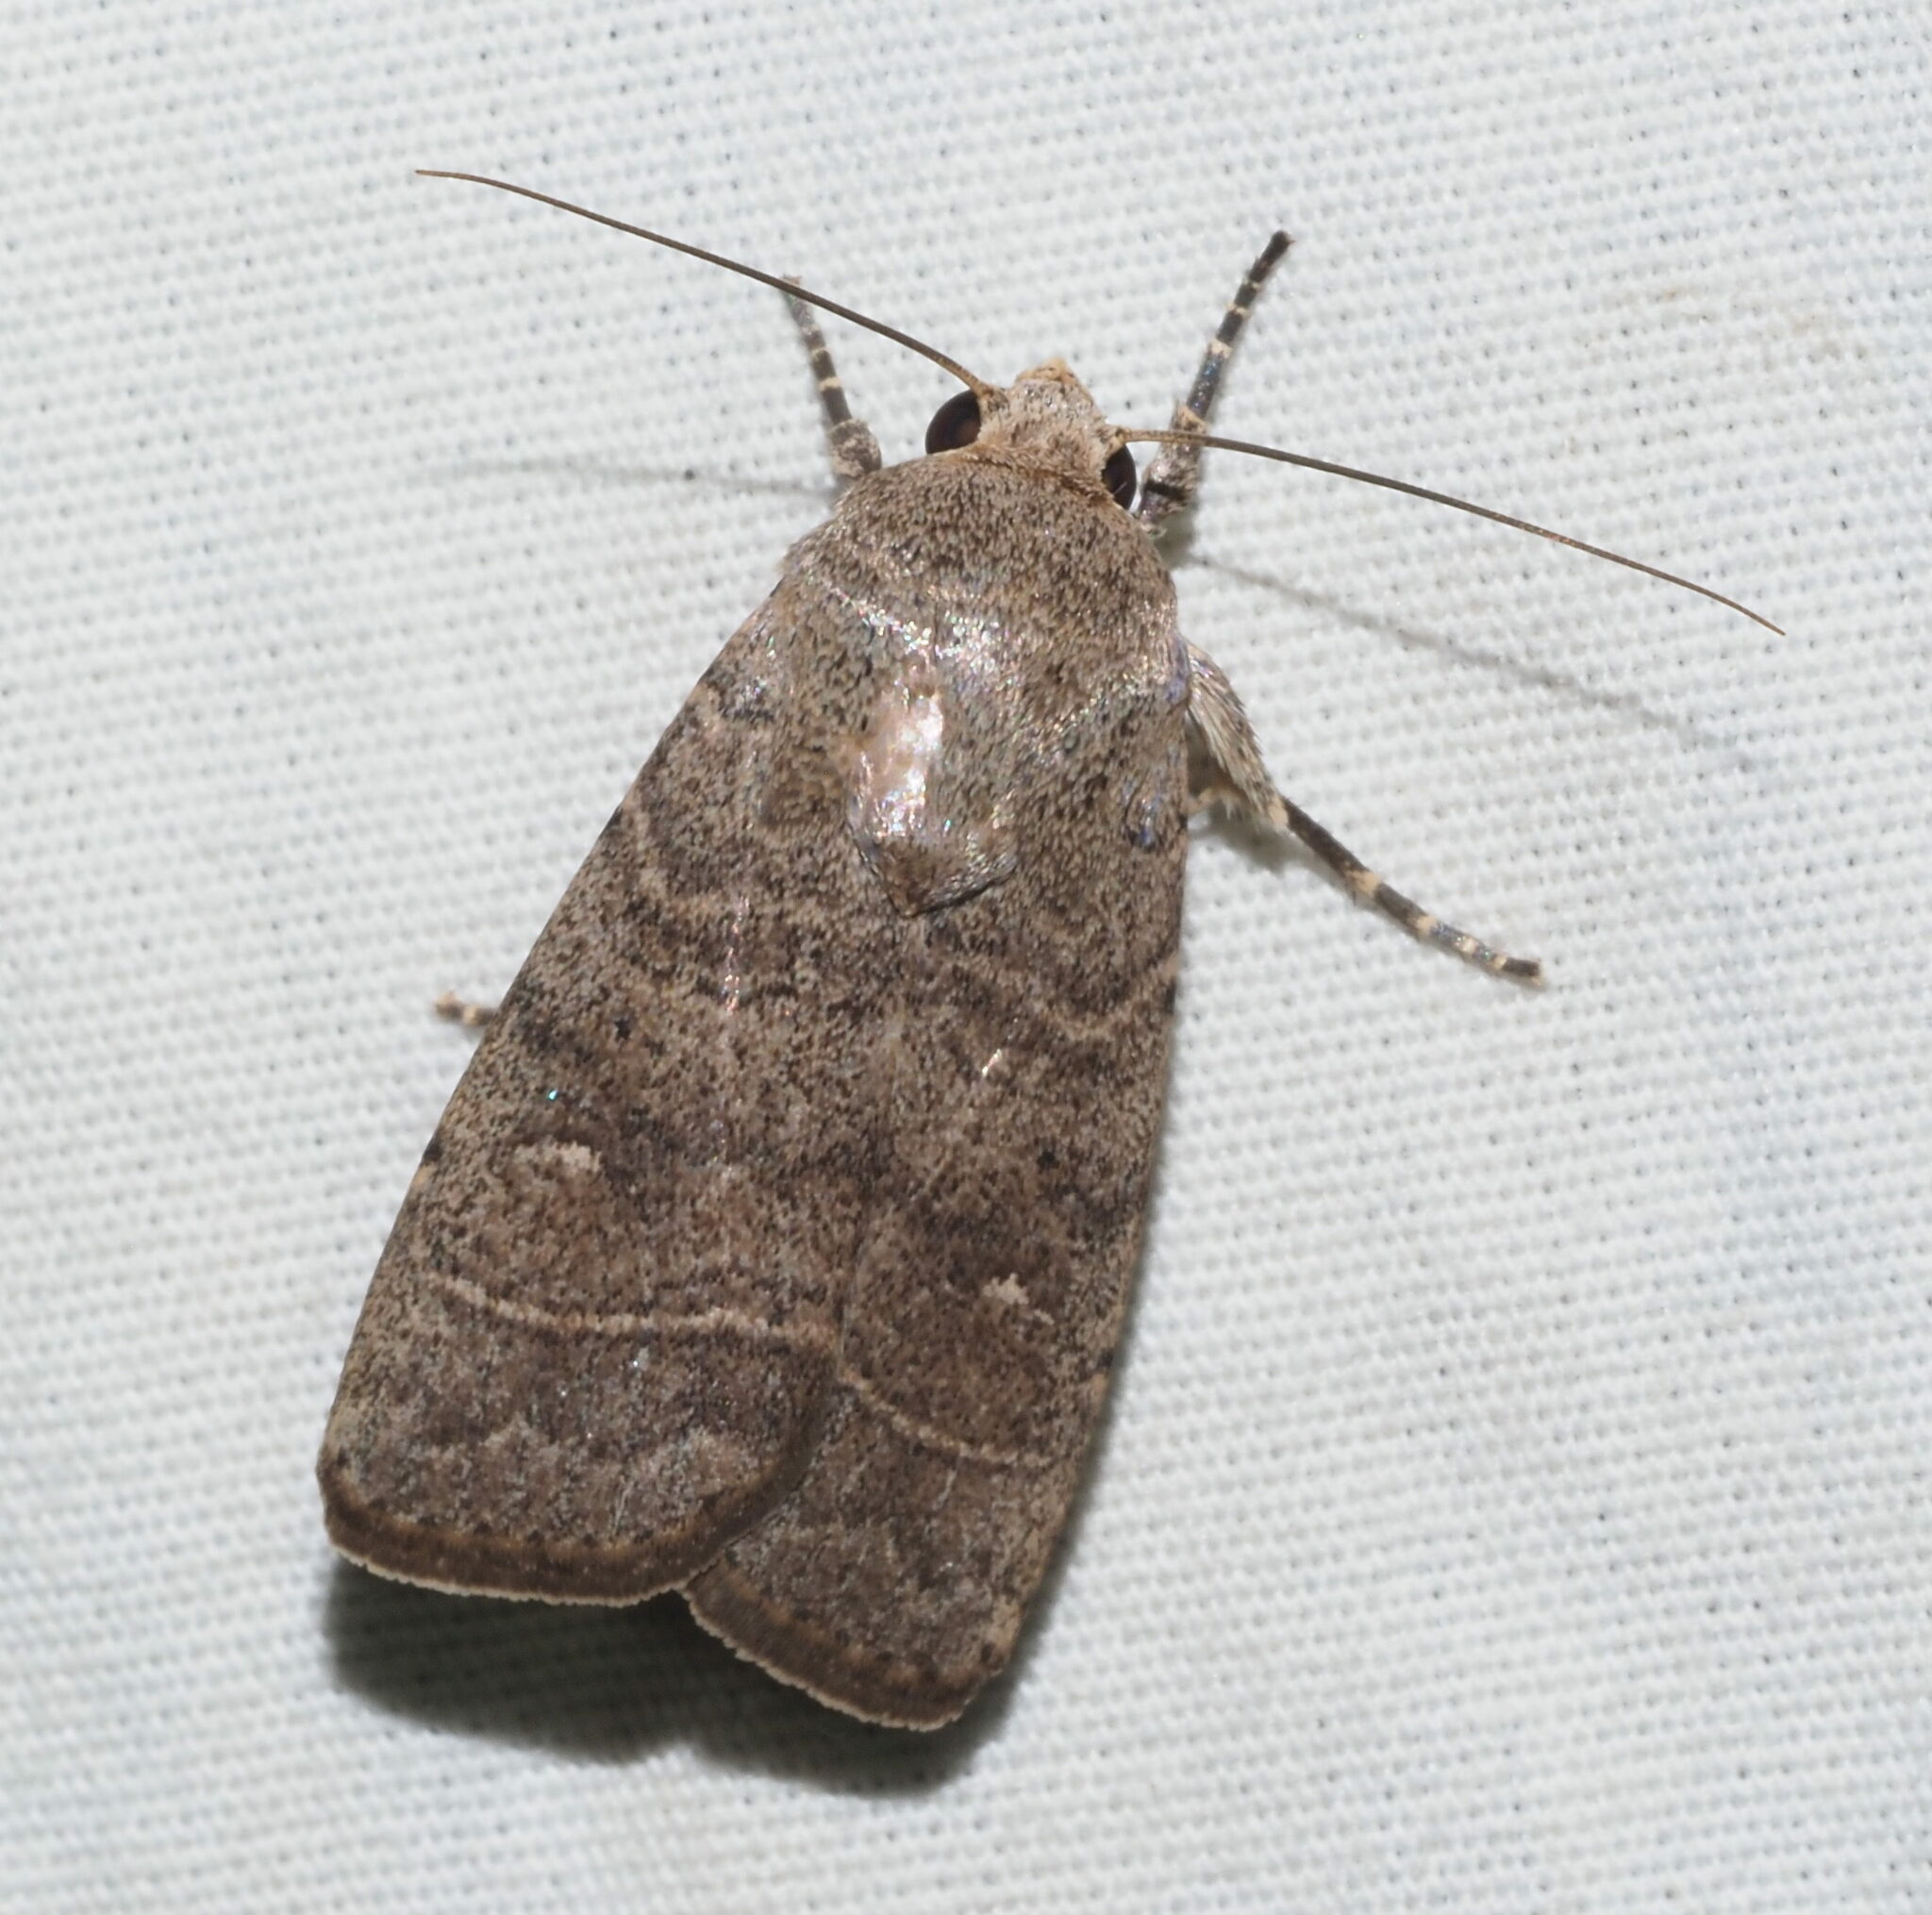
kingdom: Animalia
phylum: Arthropoda
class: Insecta
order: Lepidoptera
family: Noctuidae
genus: Athetis
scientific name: Athetis thoracica
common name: Cutworm
